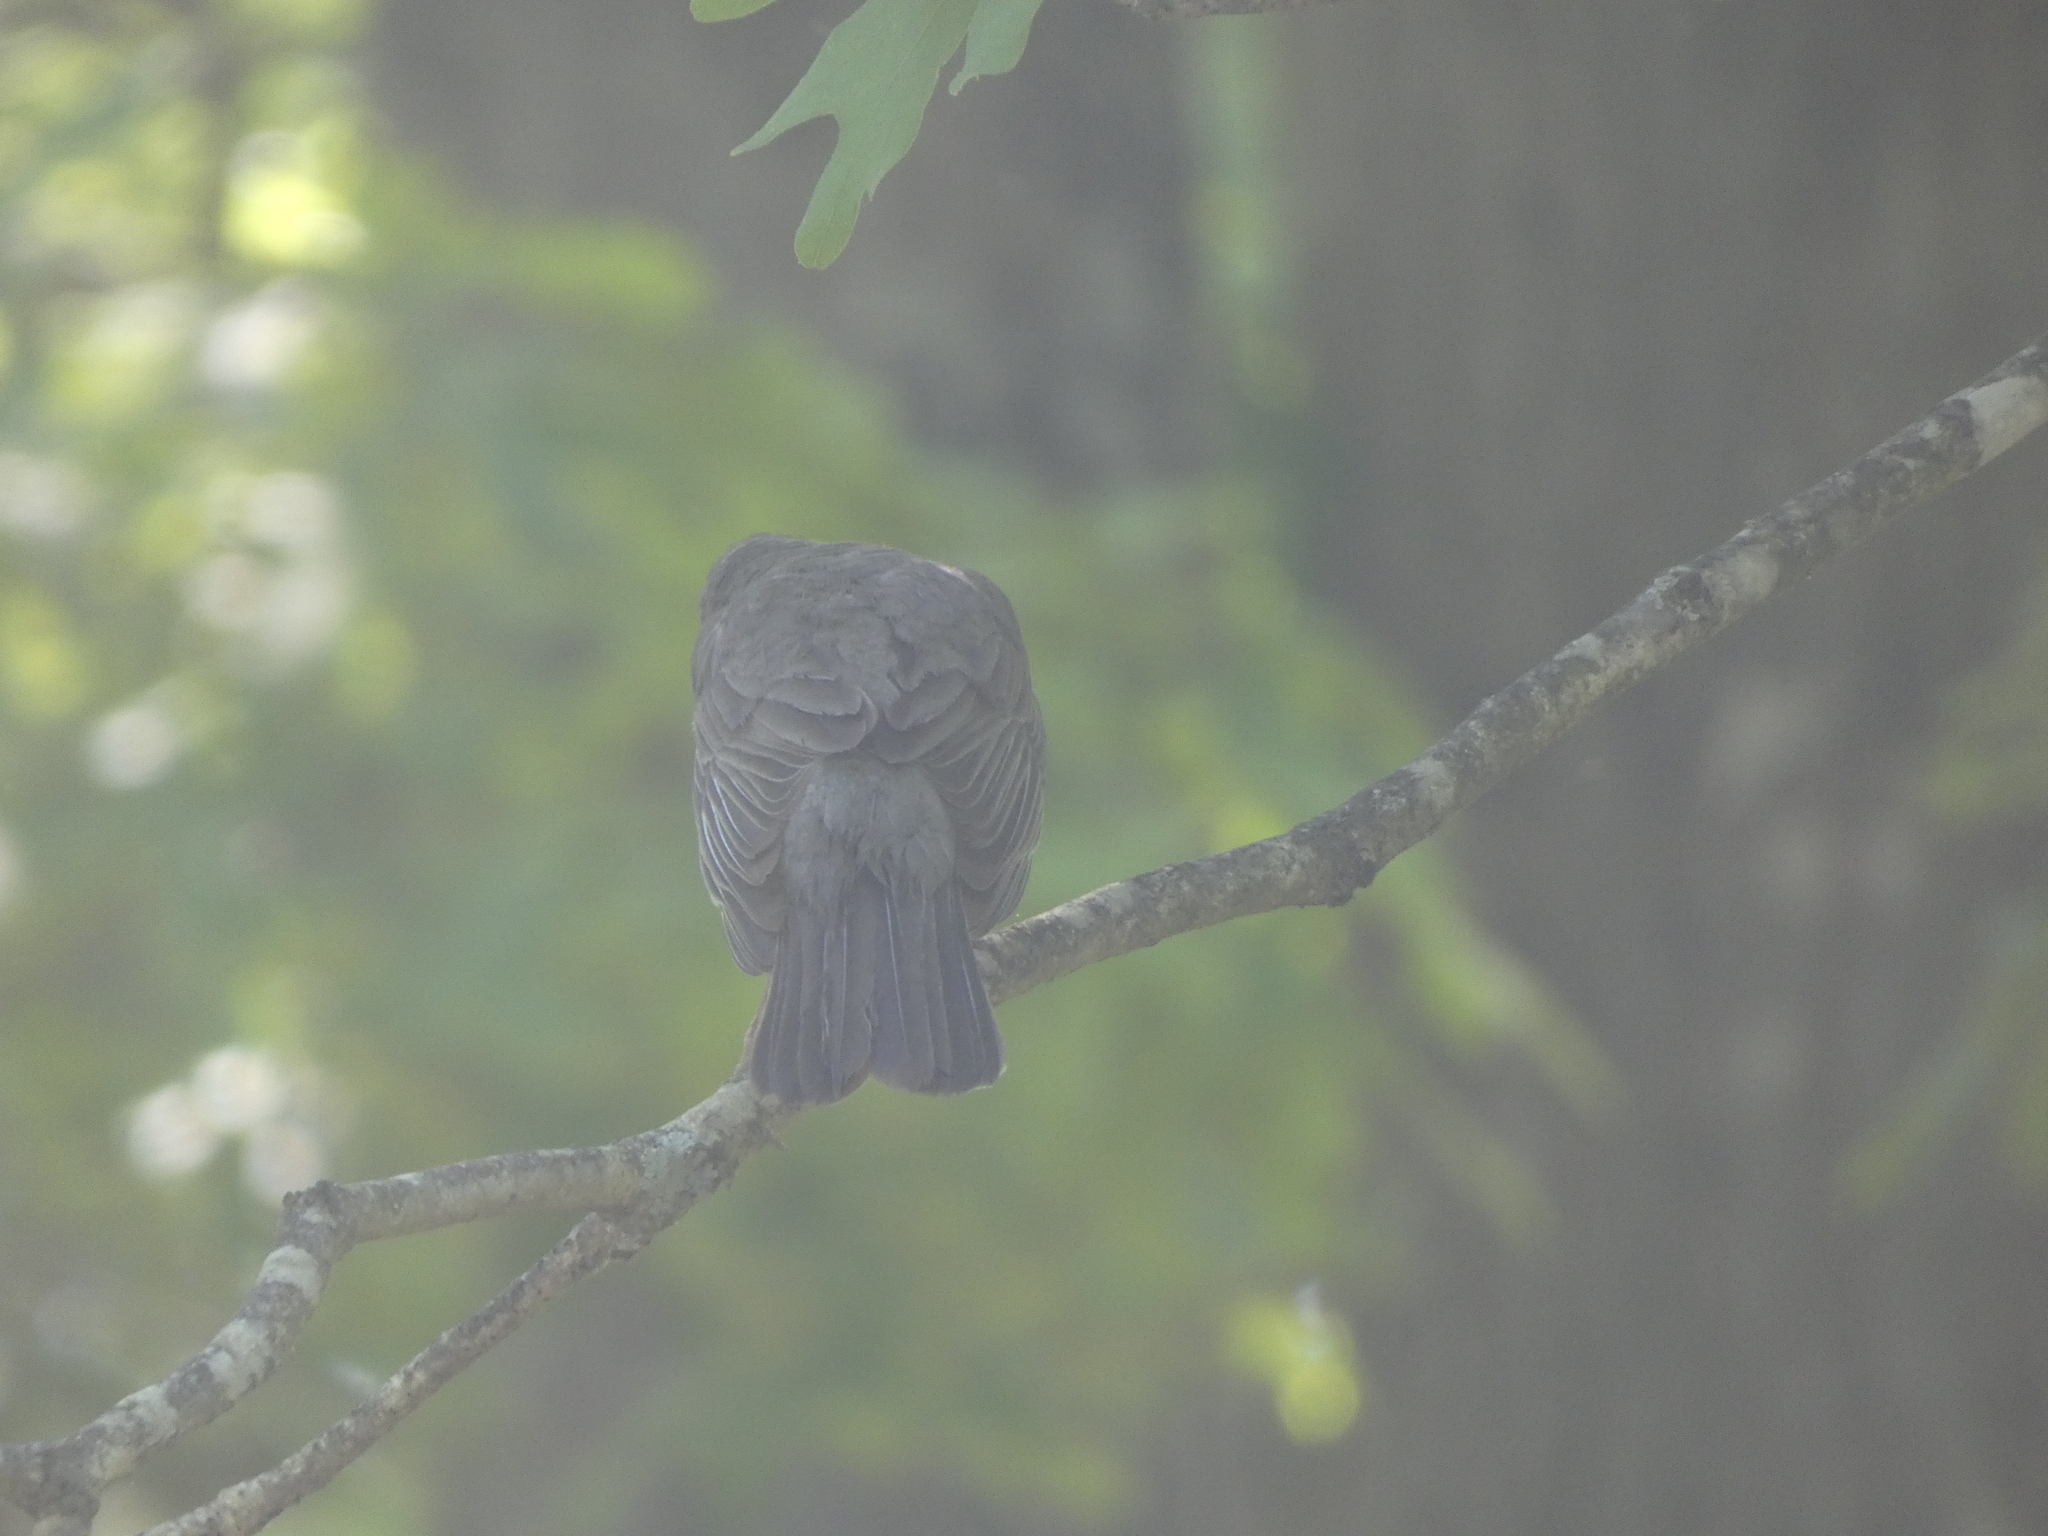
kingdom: Animalia
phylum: Chordata
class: Aves
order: Passeriformes
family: Turdidae
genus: Turdus
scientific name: Turdus migratorius
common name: American robin
